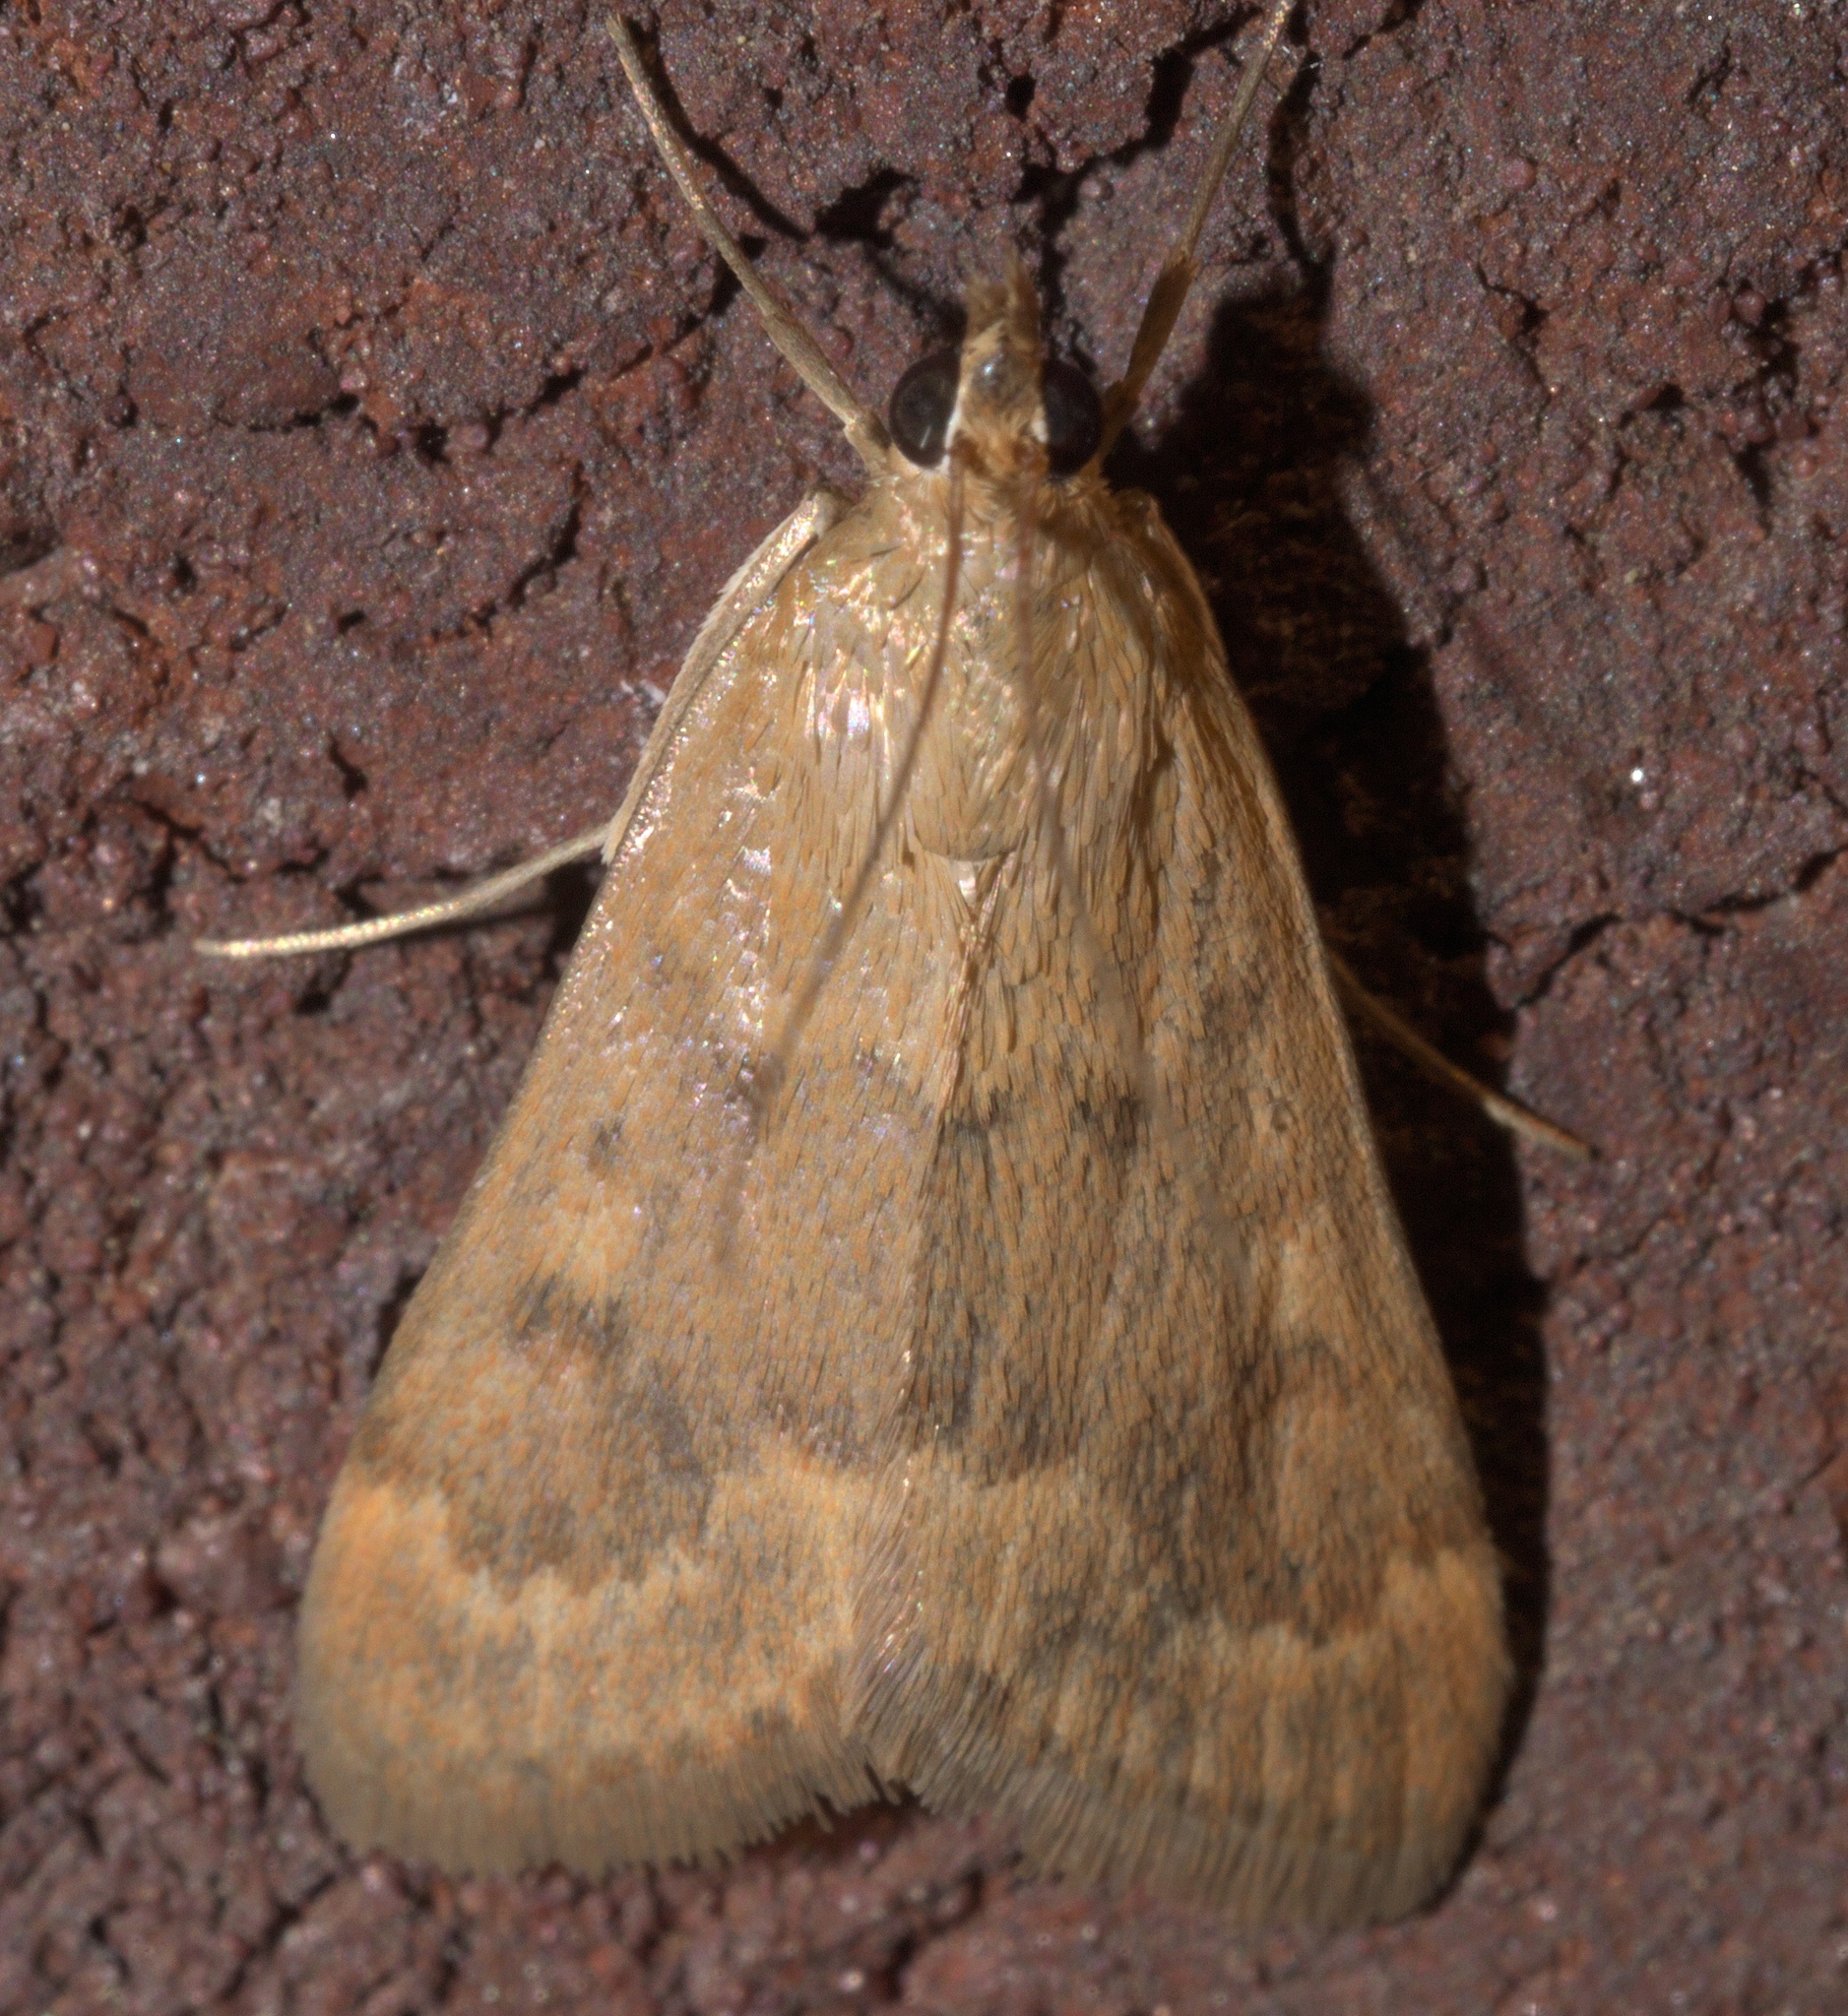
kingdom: Animalia
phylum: Arthropoda
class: Insecta
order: Lepidoptera
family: Crambidae
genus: Achyra
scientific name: Achyra rantalis
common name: Garden webworm
